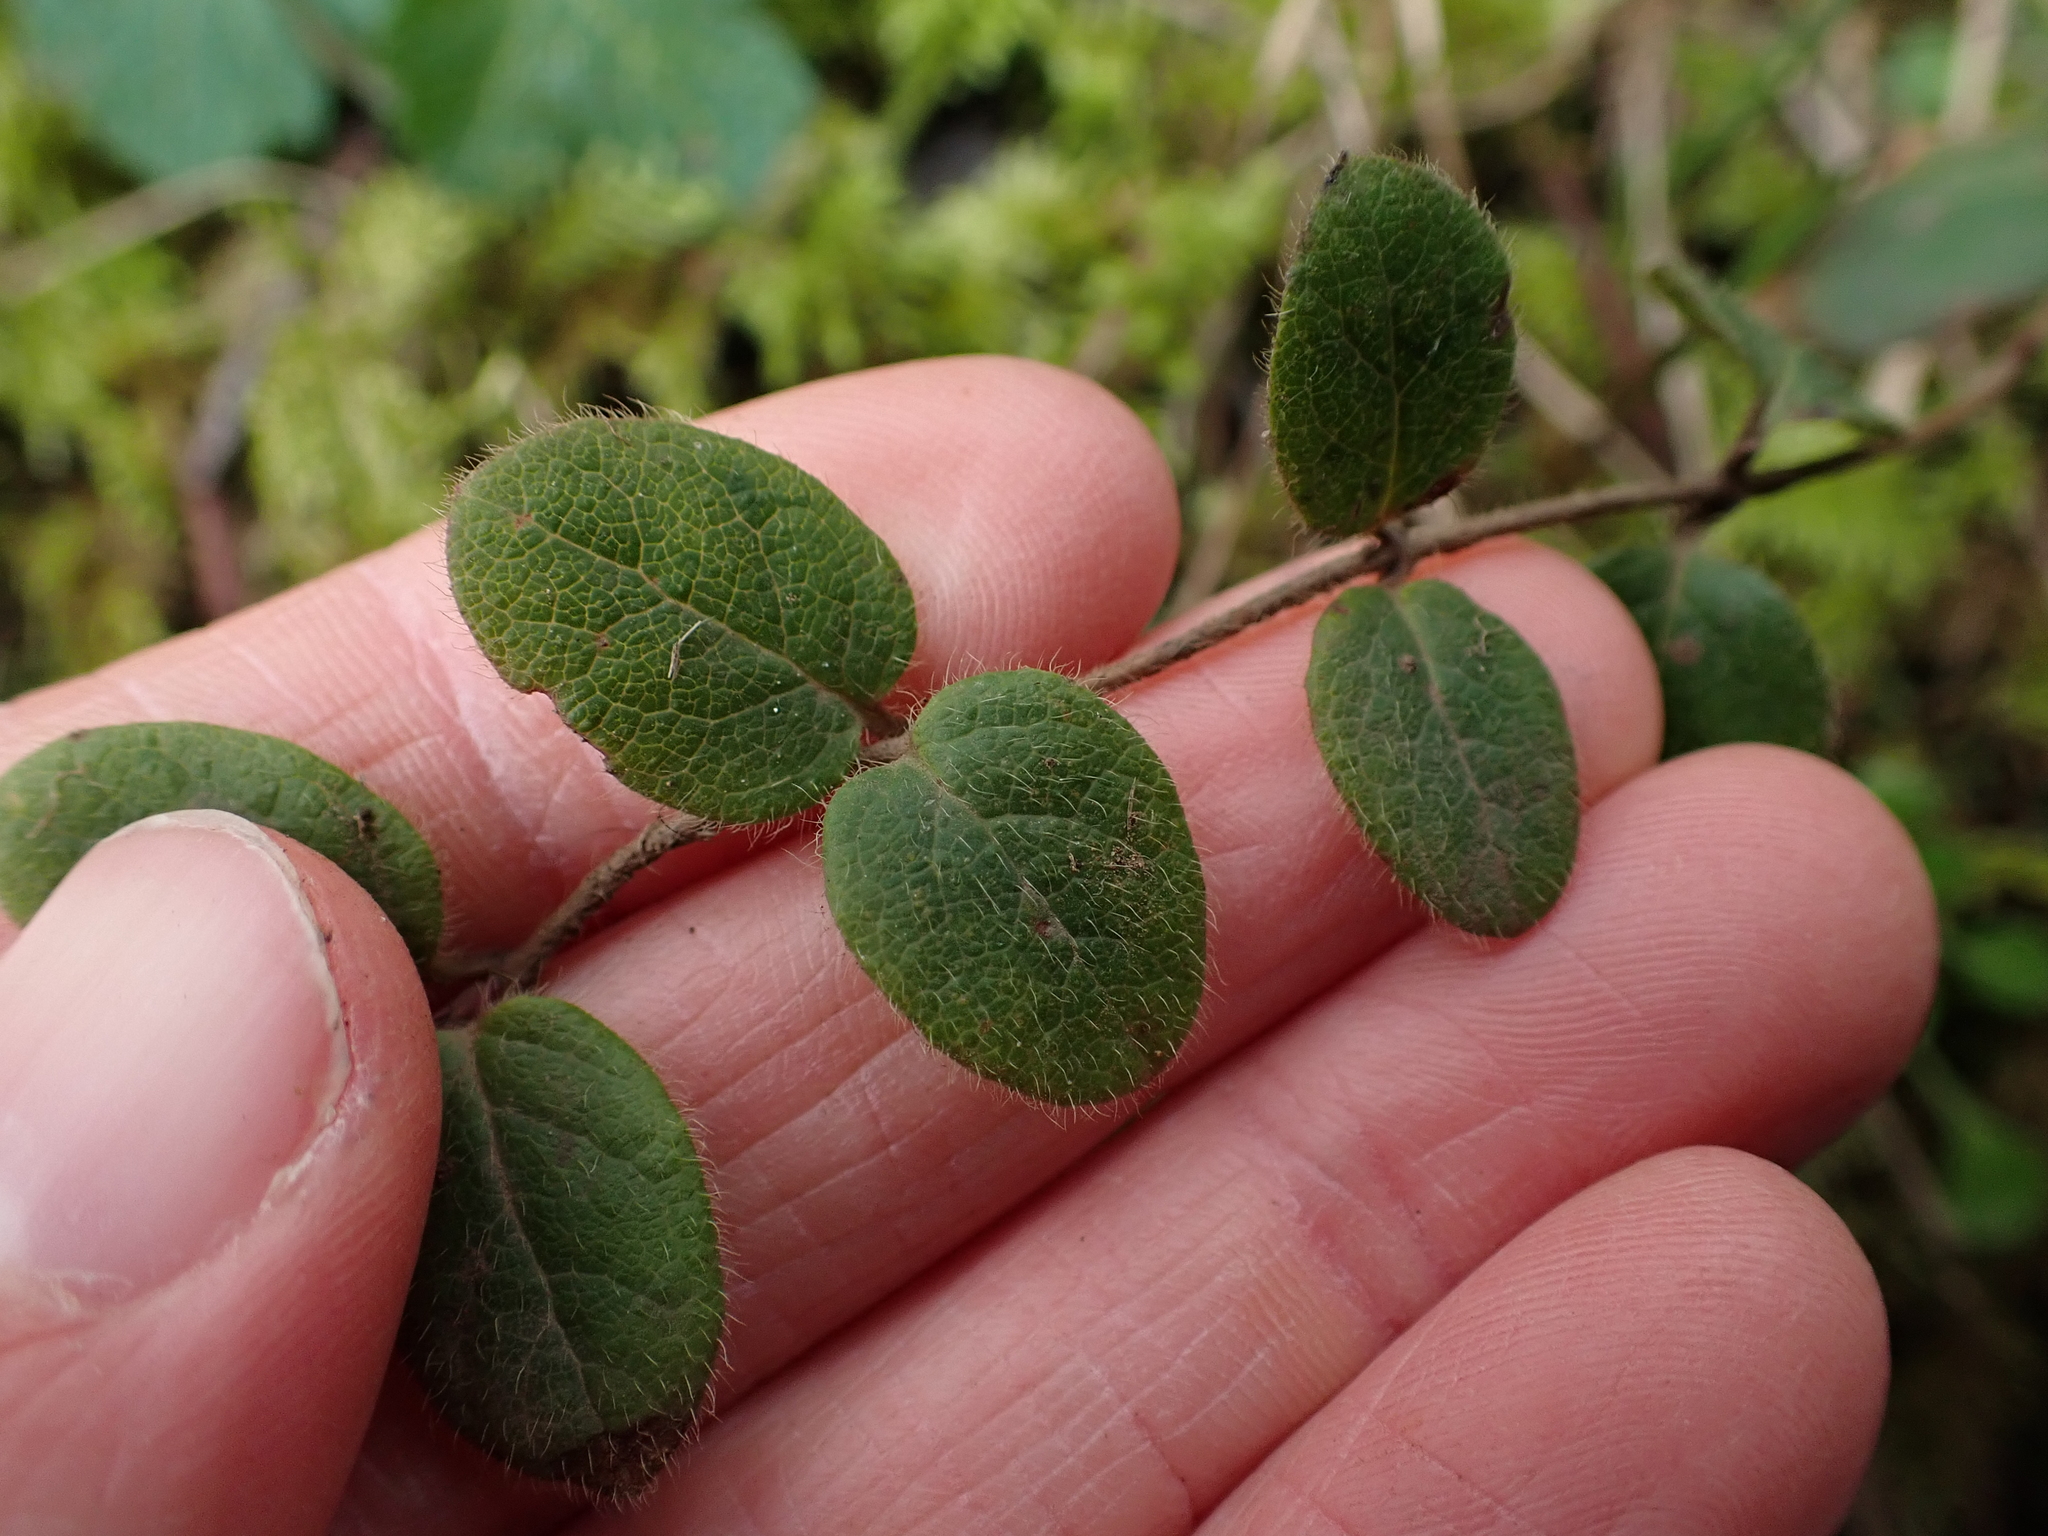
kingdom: Plantae
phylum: Tracheophyta
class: Magnoliopsida
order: Dipsacales
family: Caprifoliaceae
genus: Lonicera
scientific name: Lonicera hispidula
